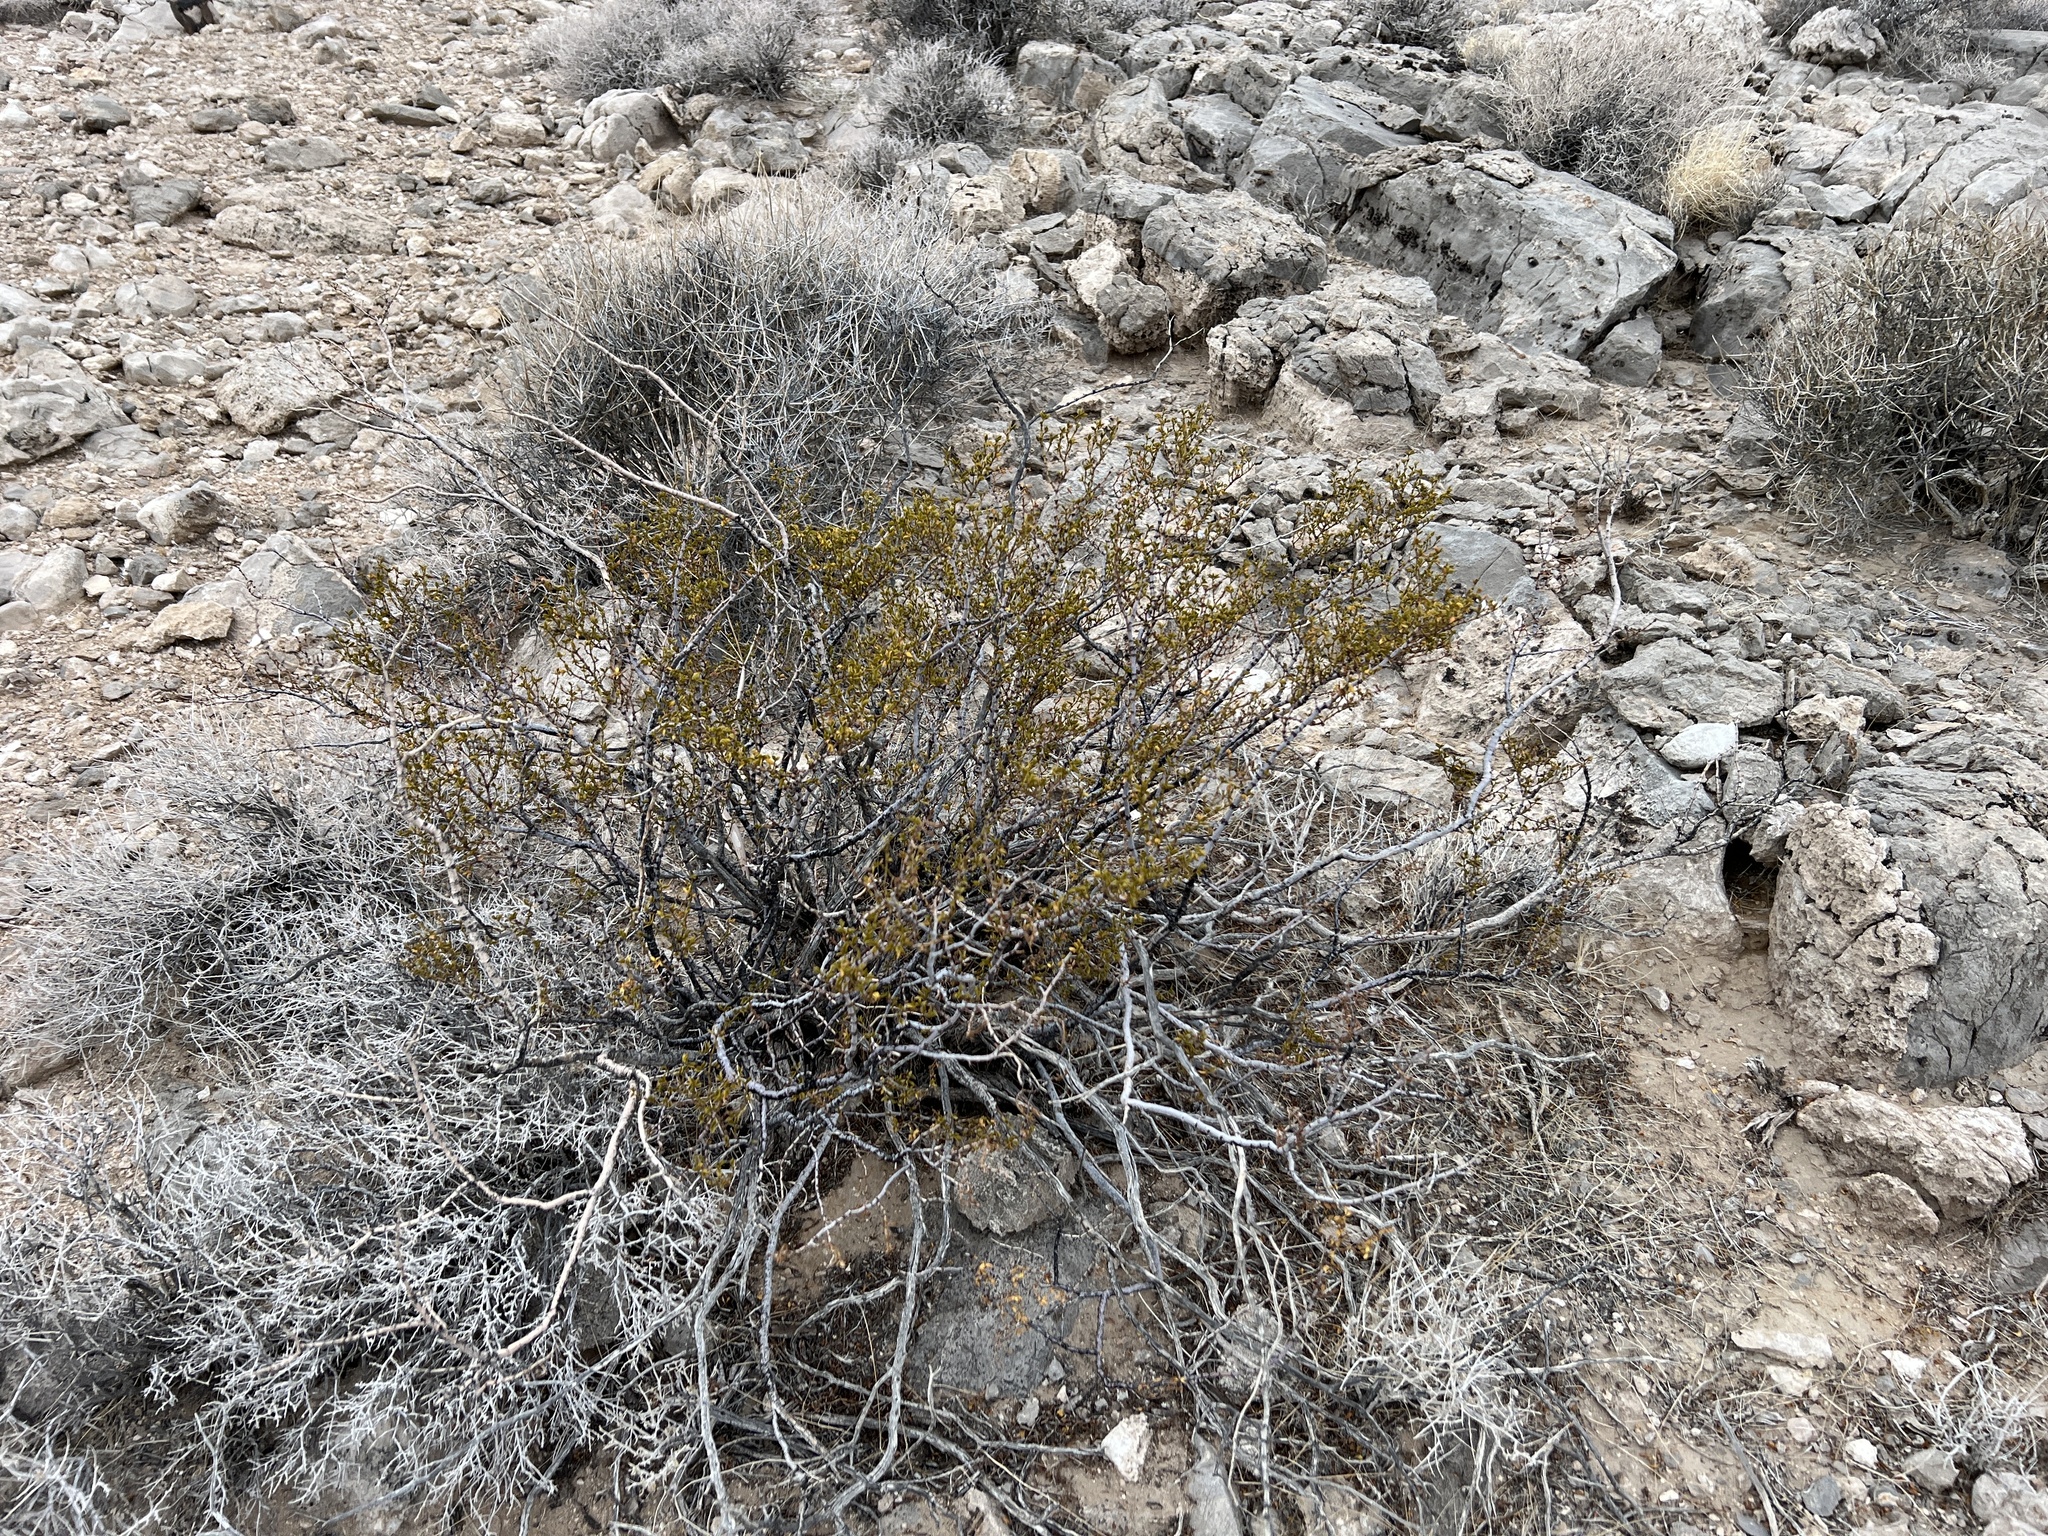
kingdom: Plantae
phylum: Tracheophyta
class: Magnoliopsida
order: Zygophyllales
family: Zygophyllaceae
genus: Larrea
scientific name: Larrea tridentata
